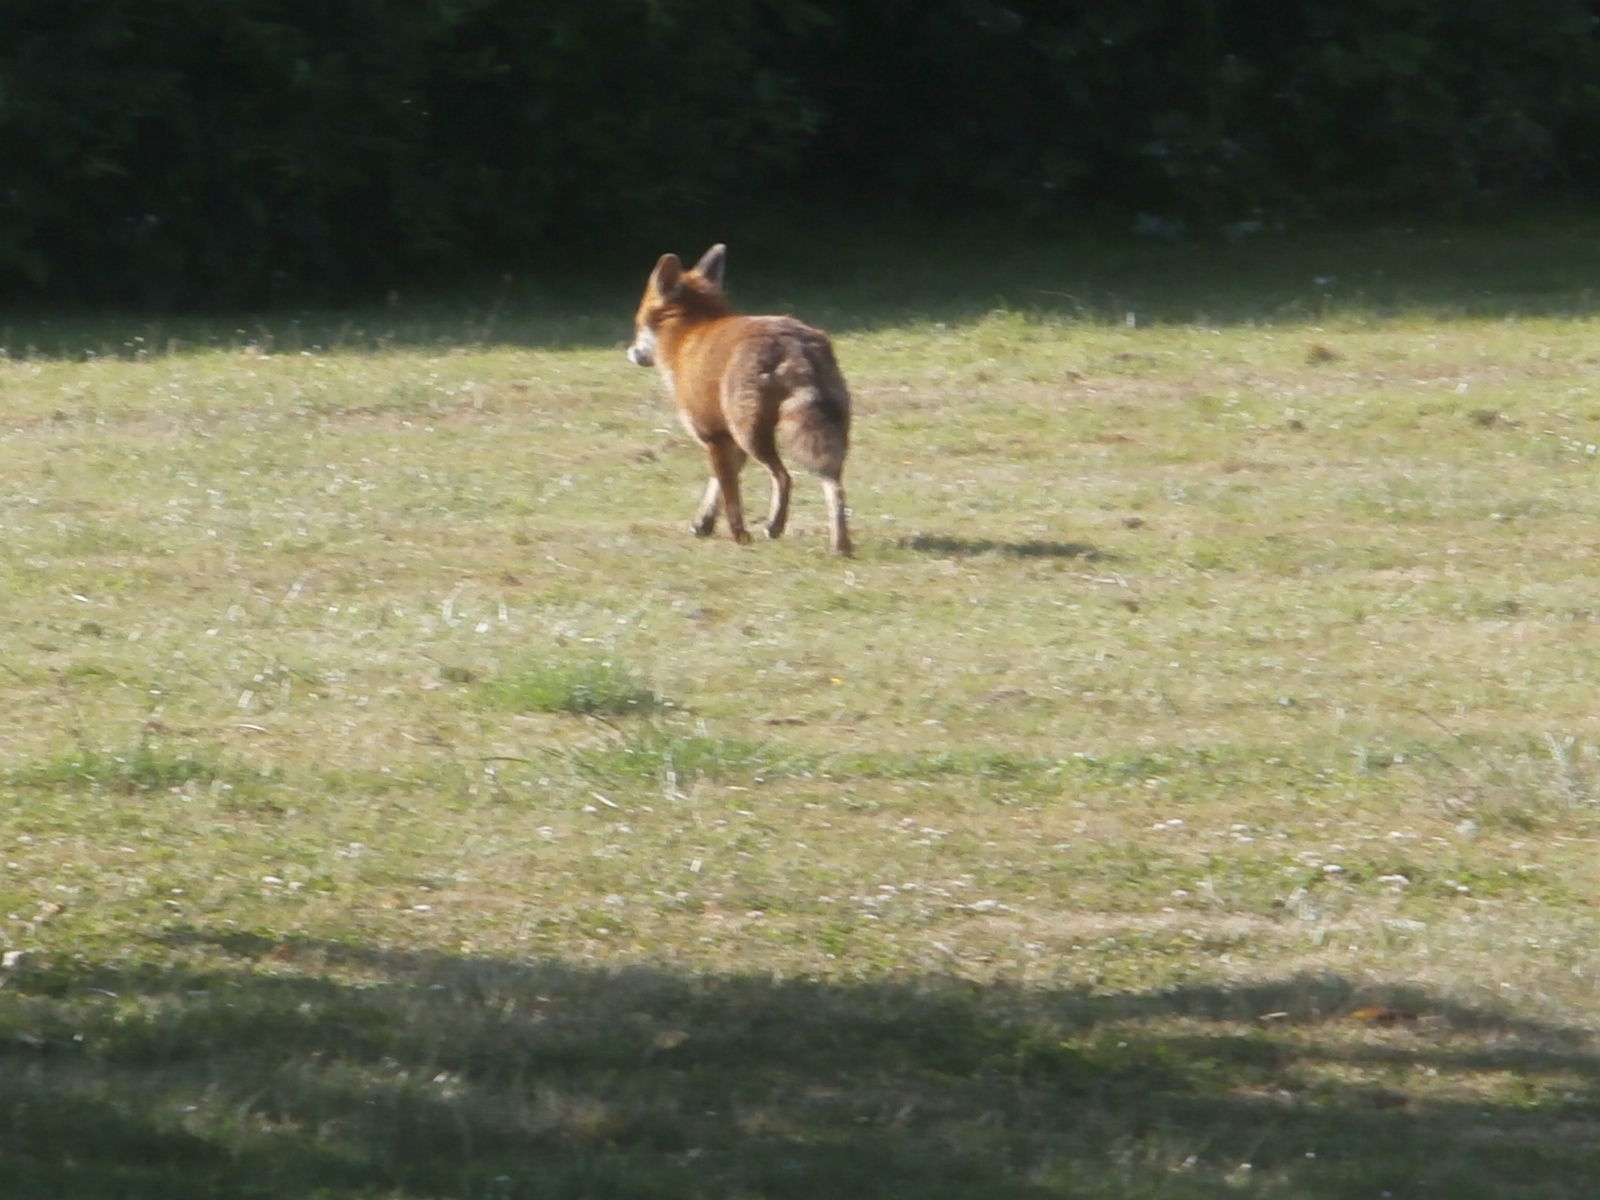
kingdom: Animalia
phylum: Chordata
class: Mammalia
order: Carnivora
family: Canidae
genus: Vulpes
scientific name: Vulpes vulpes
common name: Red fox
